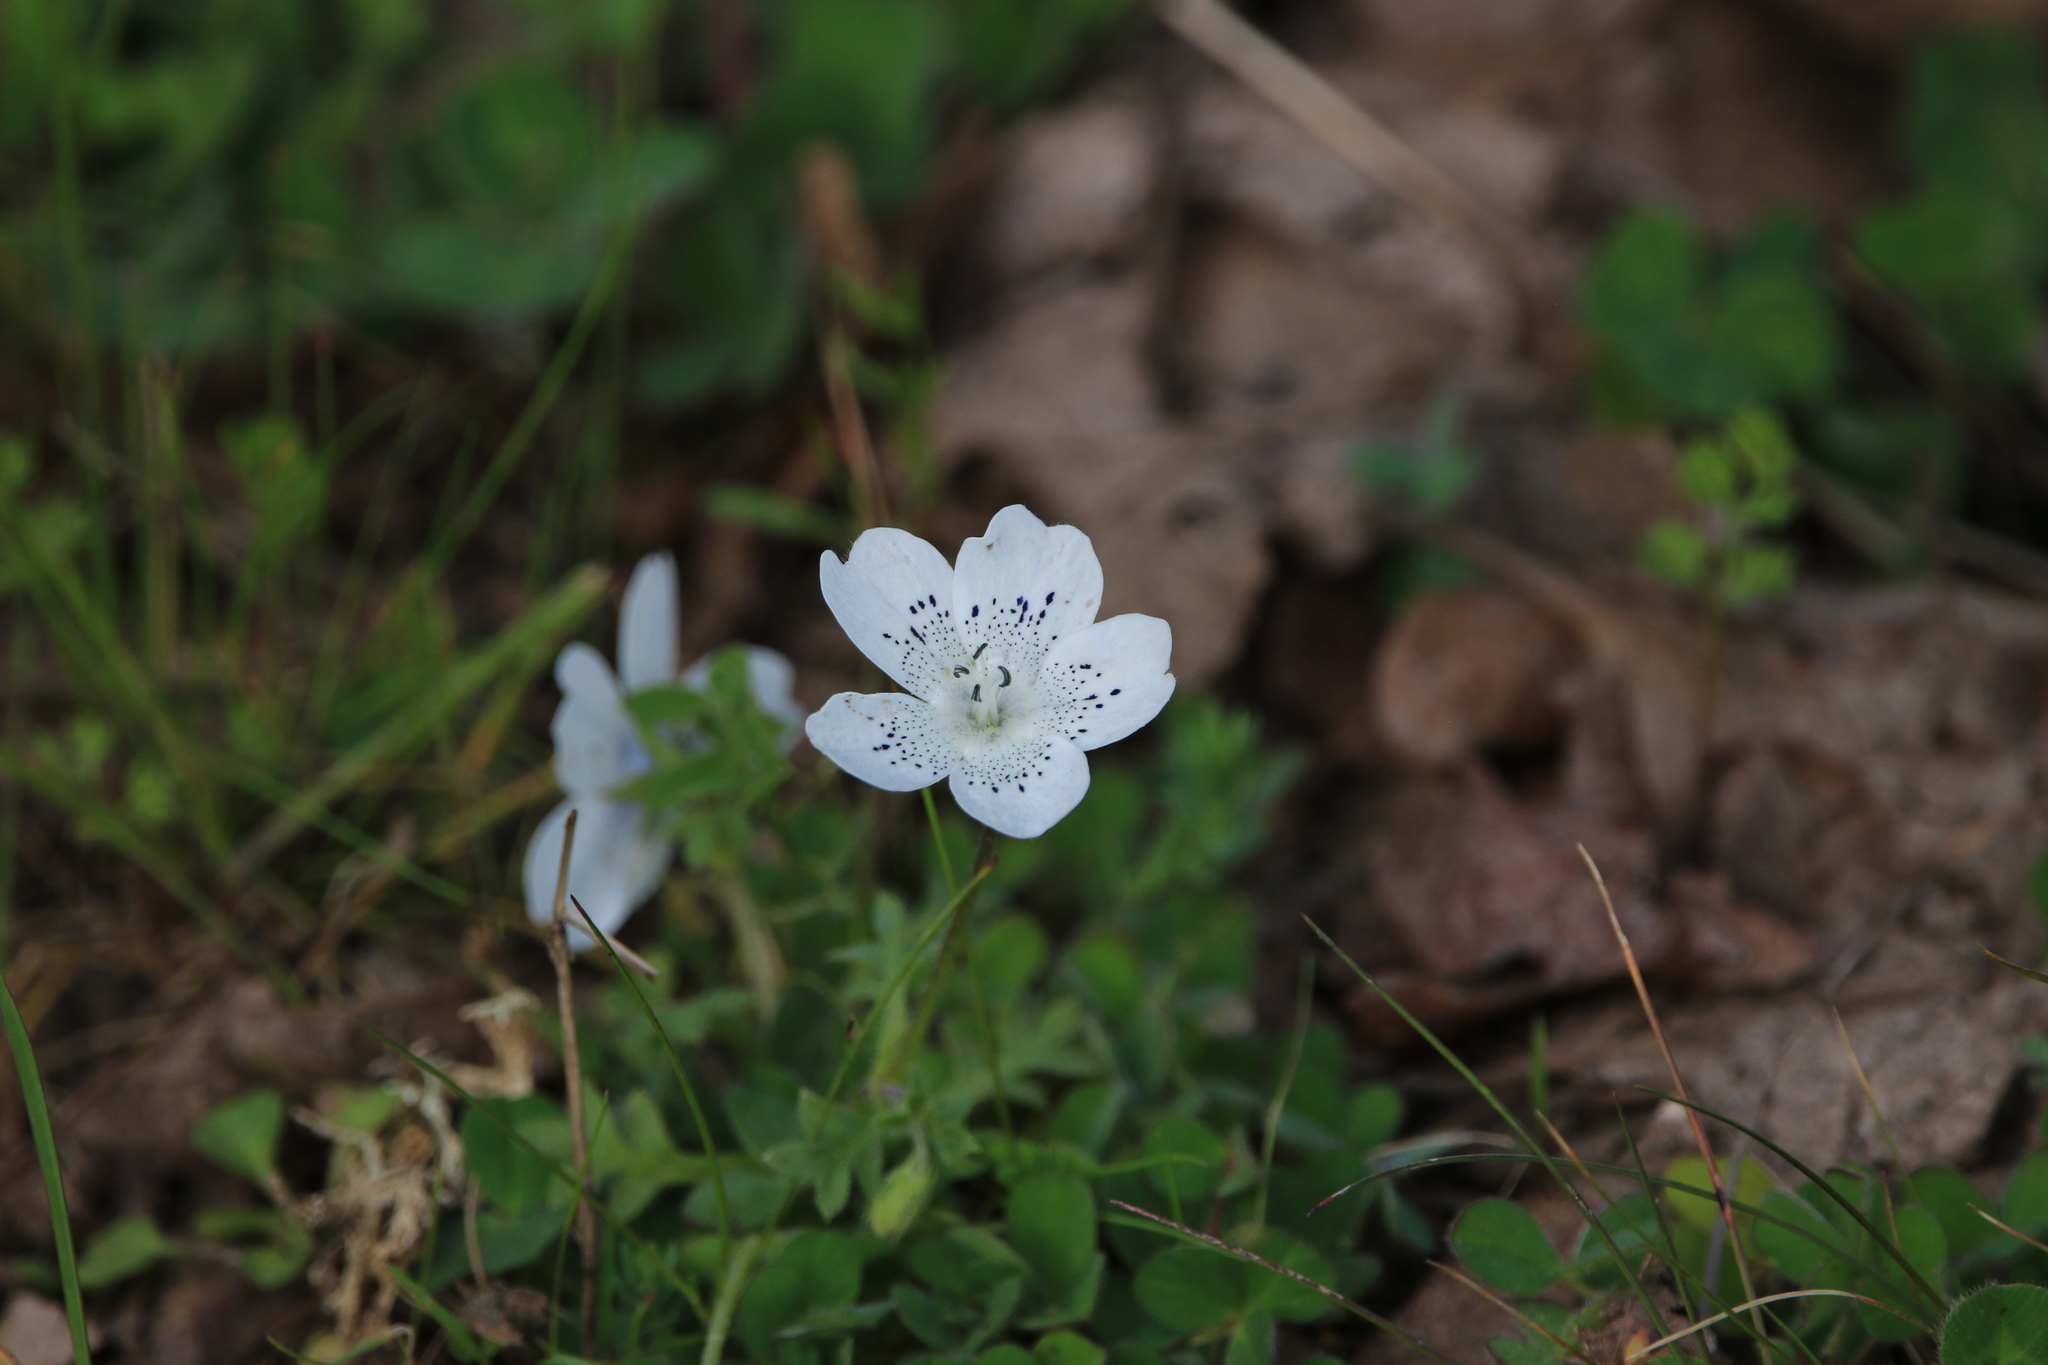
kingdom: Plantae
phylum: Tracheophyta
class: Magnoliopsida
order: Boraginales
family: Hydrophyllaceae
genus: Nemophila
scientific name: Nemophila menziesii
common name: Baby's-blue-eyes
